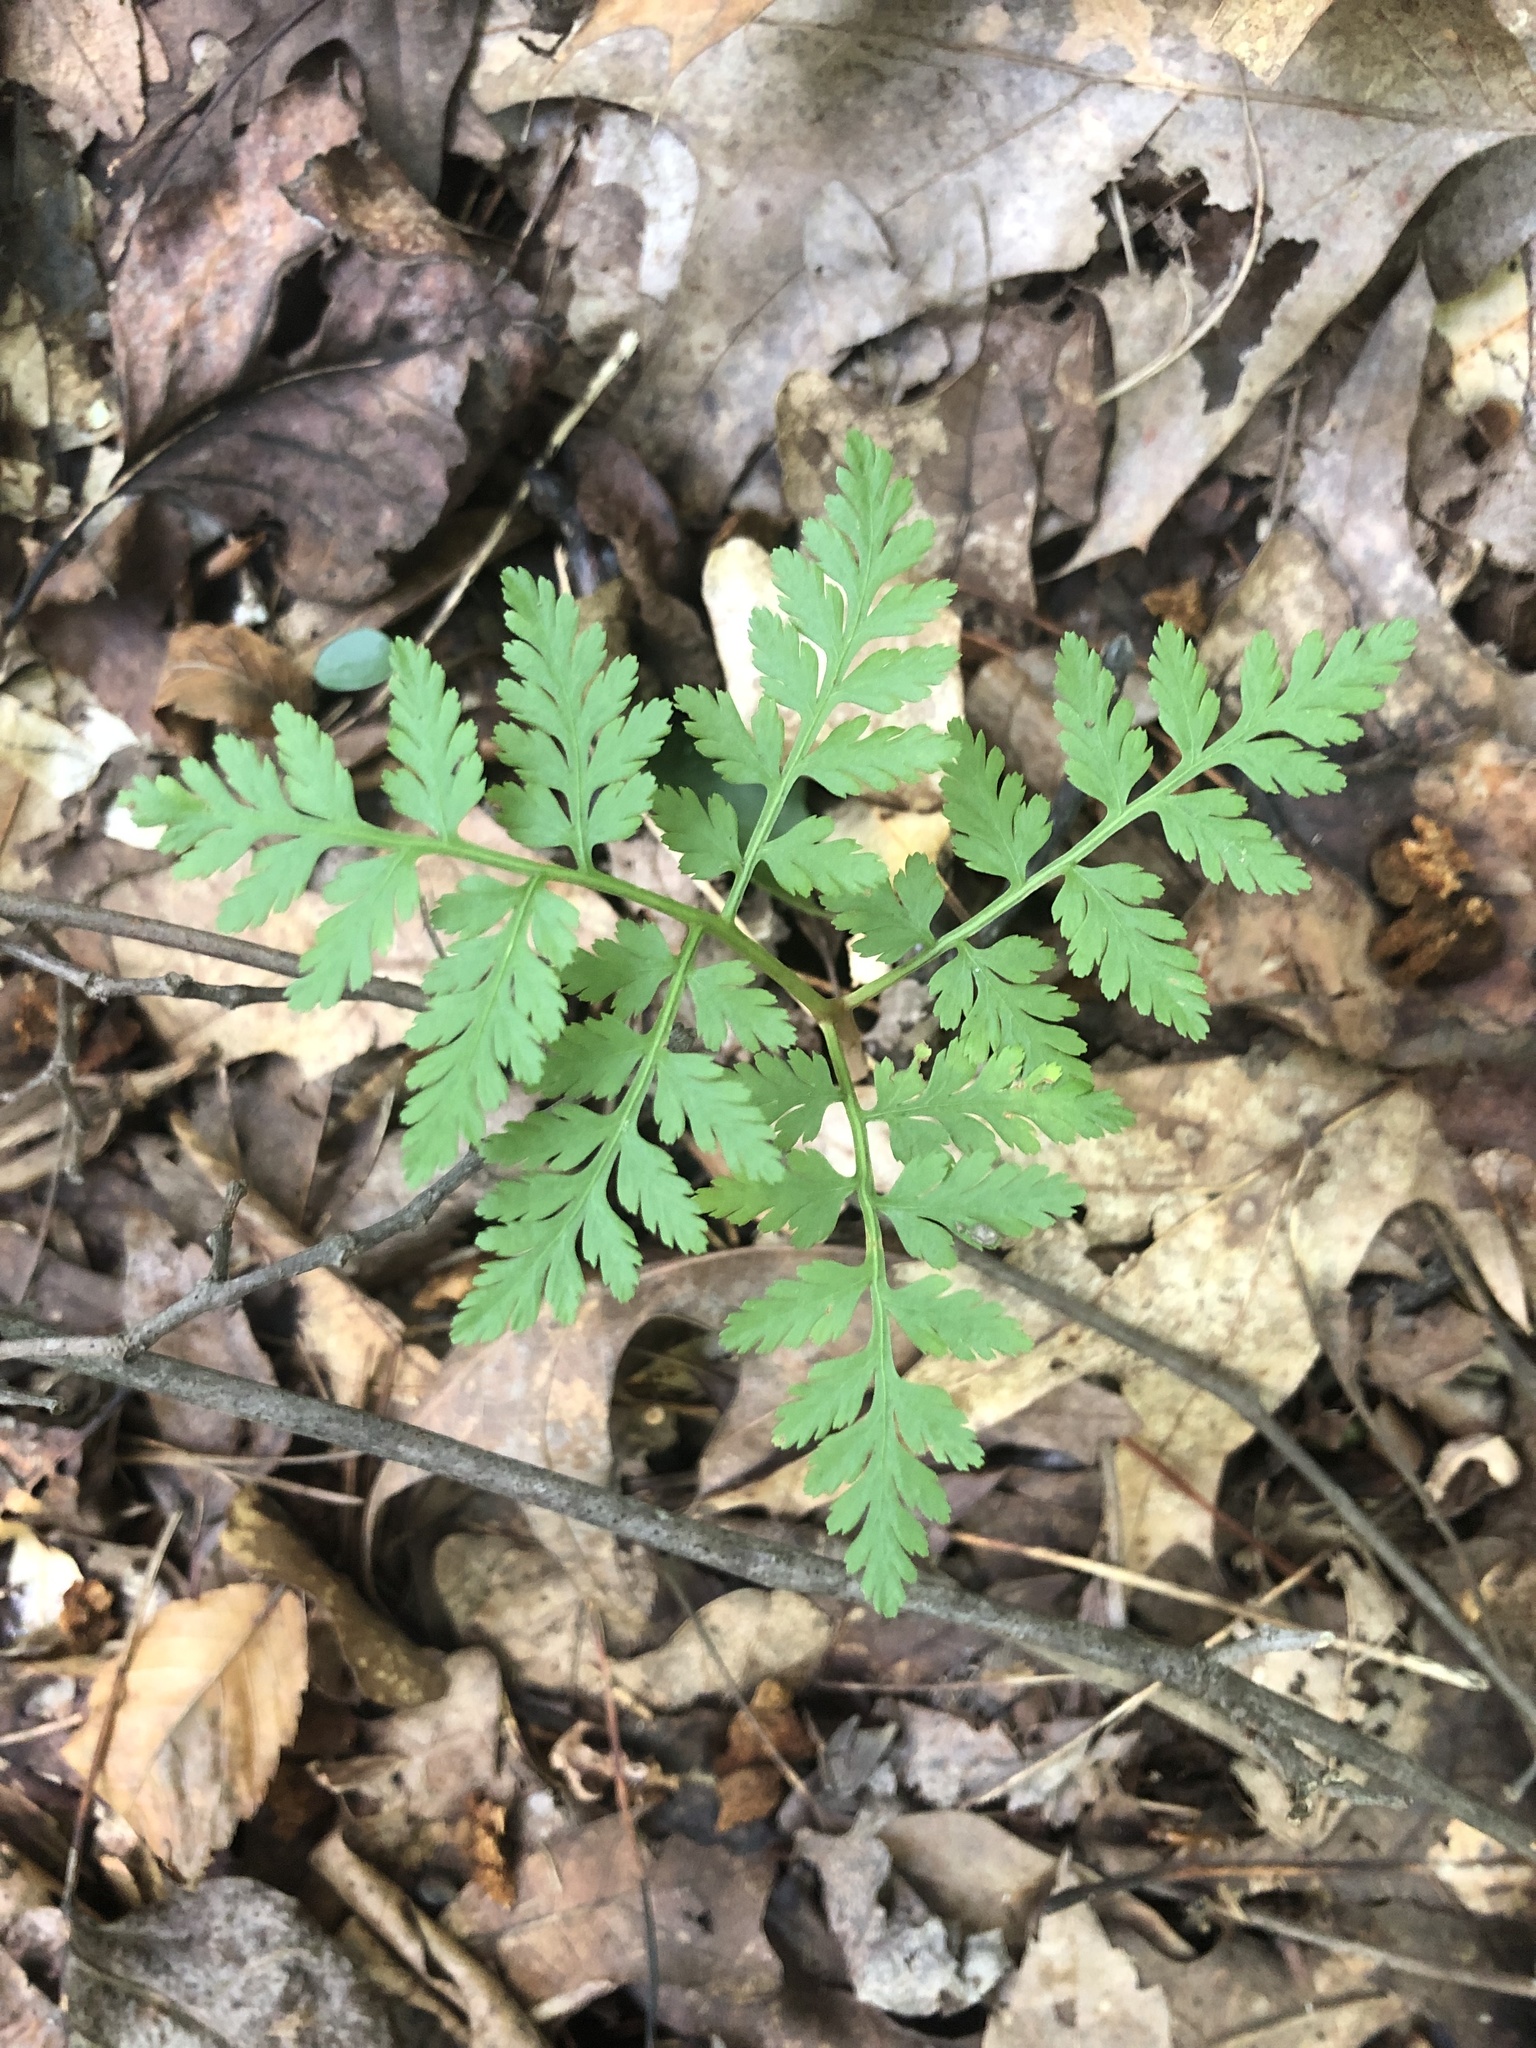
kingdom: Plantae
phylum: Tracheophyta
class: Polypodiopsida
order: Ophioglossales
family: Ophioglossaceae
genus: Botrypus
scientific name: Botrypus virginianus
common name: Common grapefern
